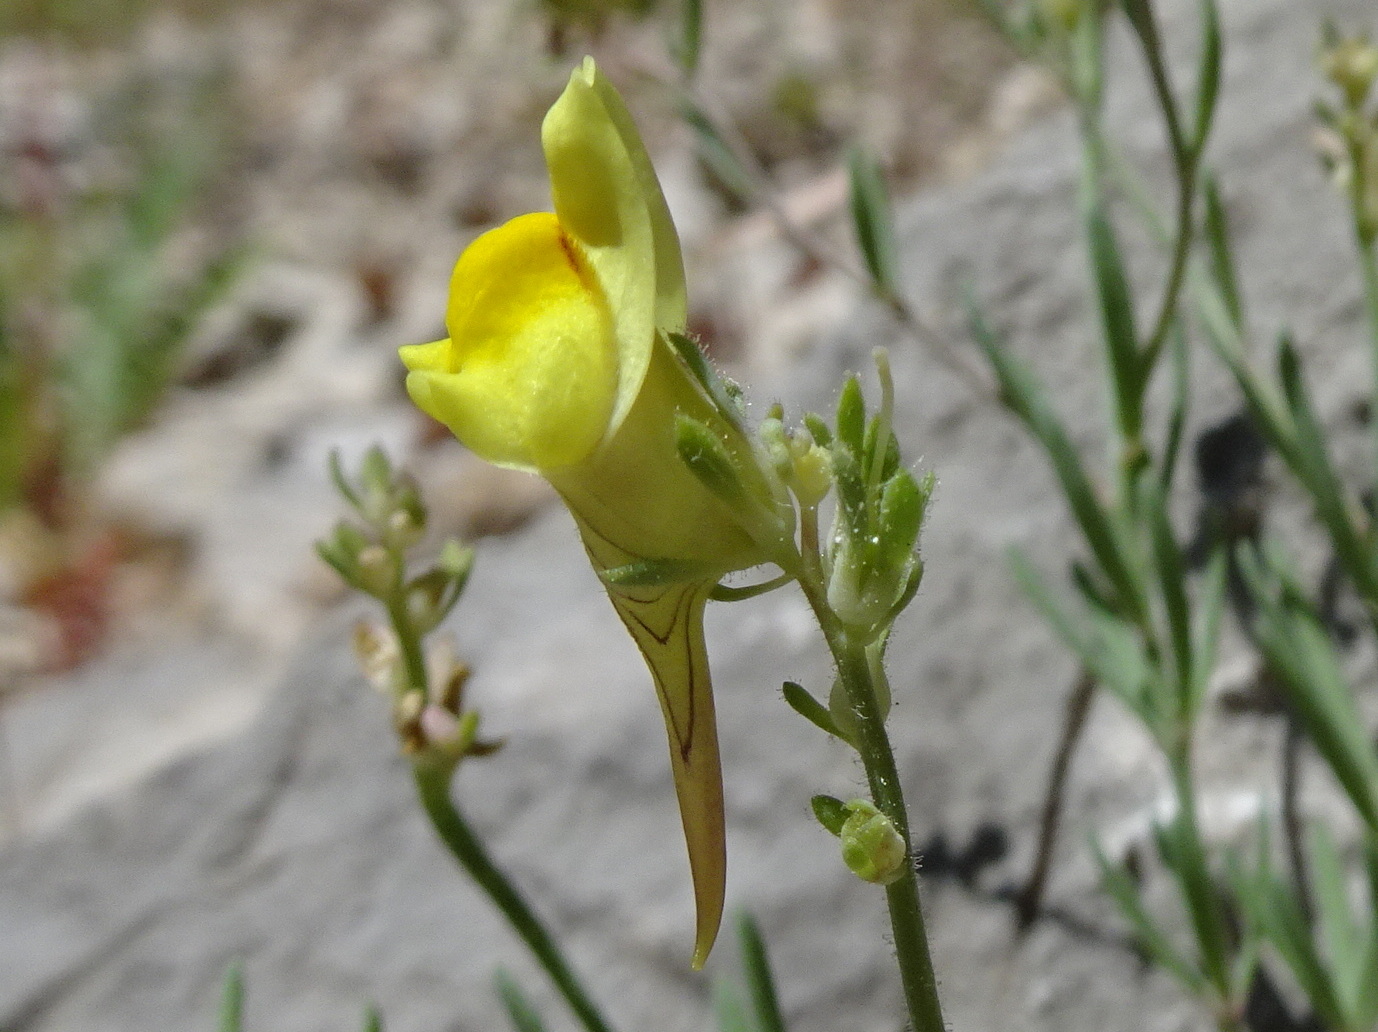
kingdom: Plantae
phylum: Tracheophyta
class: Magnoliopsida
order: Lamiales
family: Plantaginaceae
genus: Linaria
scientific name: Linaria supina
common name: Prostrate toadflax
